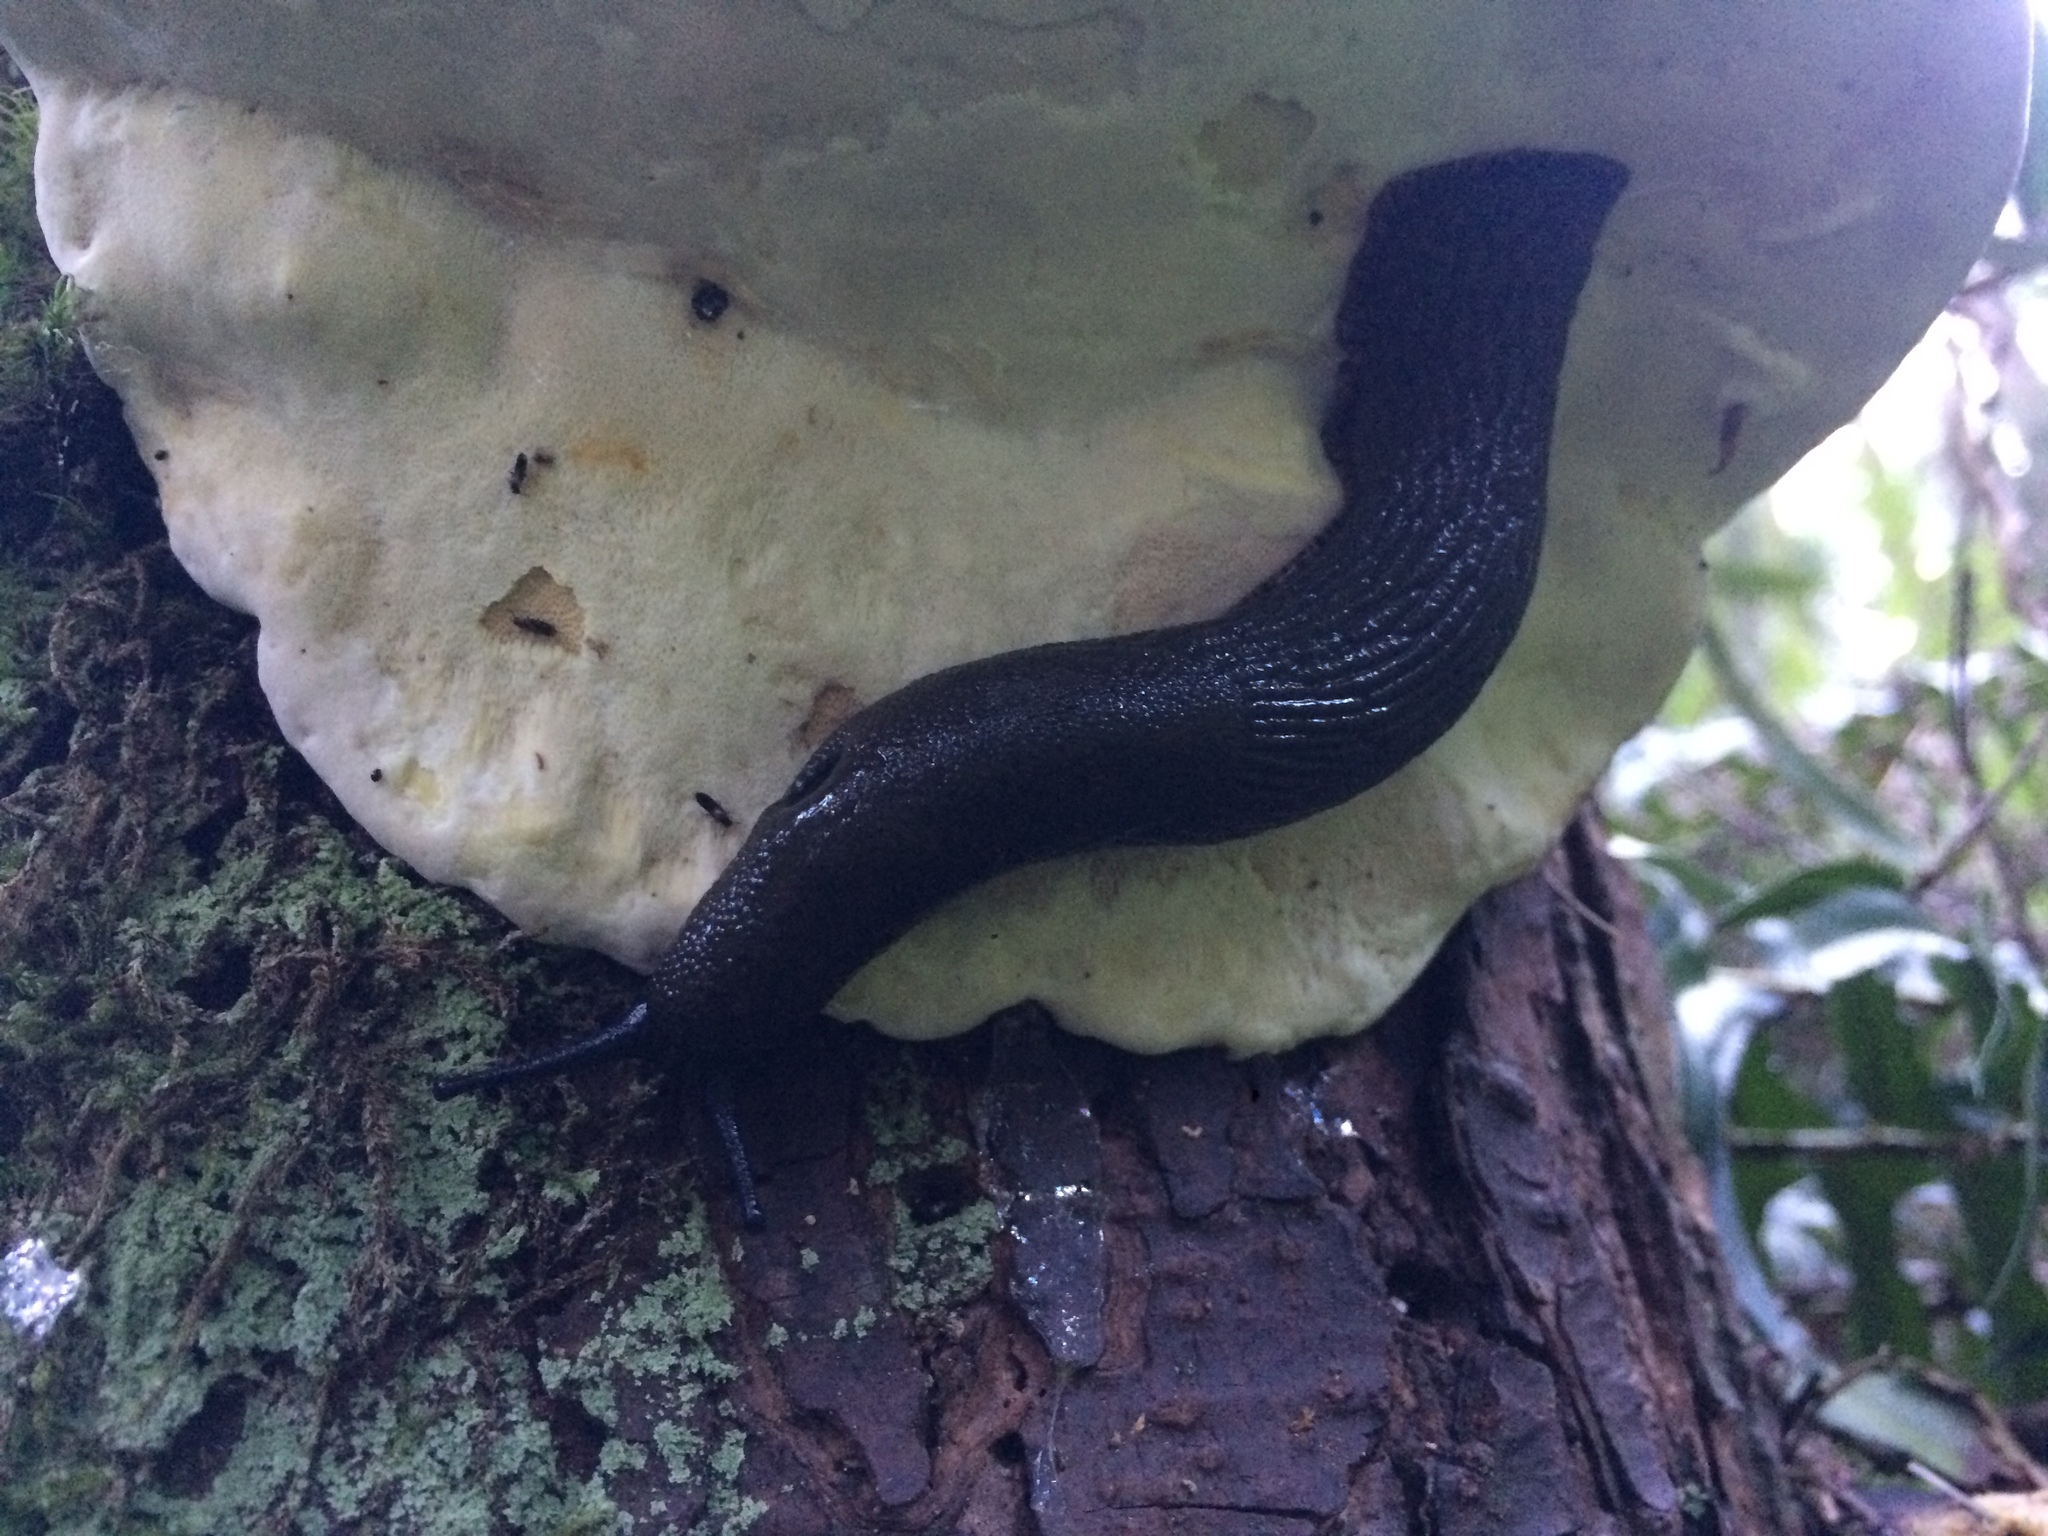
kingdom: Animalia
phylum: Mollusca
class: Gastropoda
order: Stylommatophora
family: Arionidae
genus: Arion
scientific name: Arion
